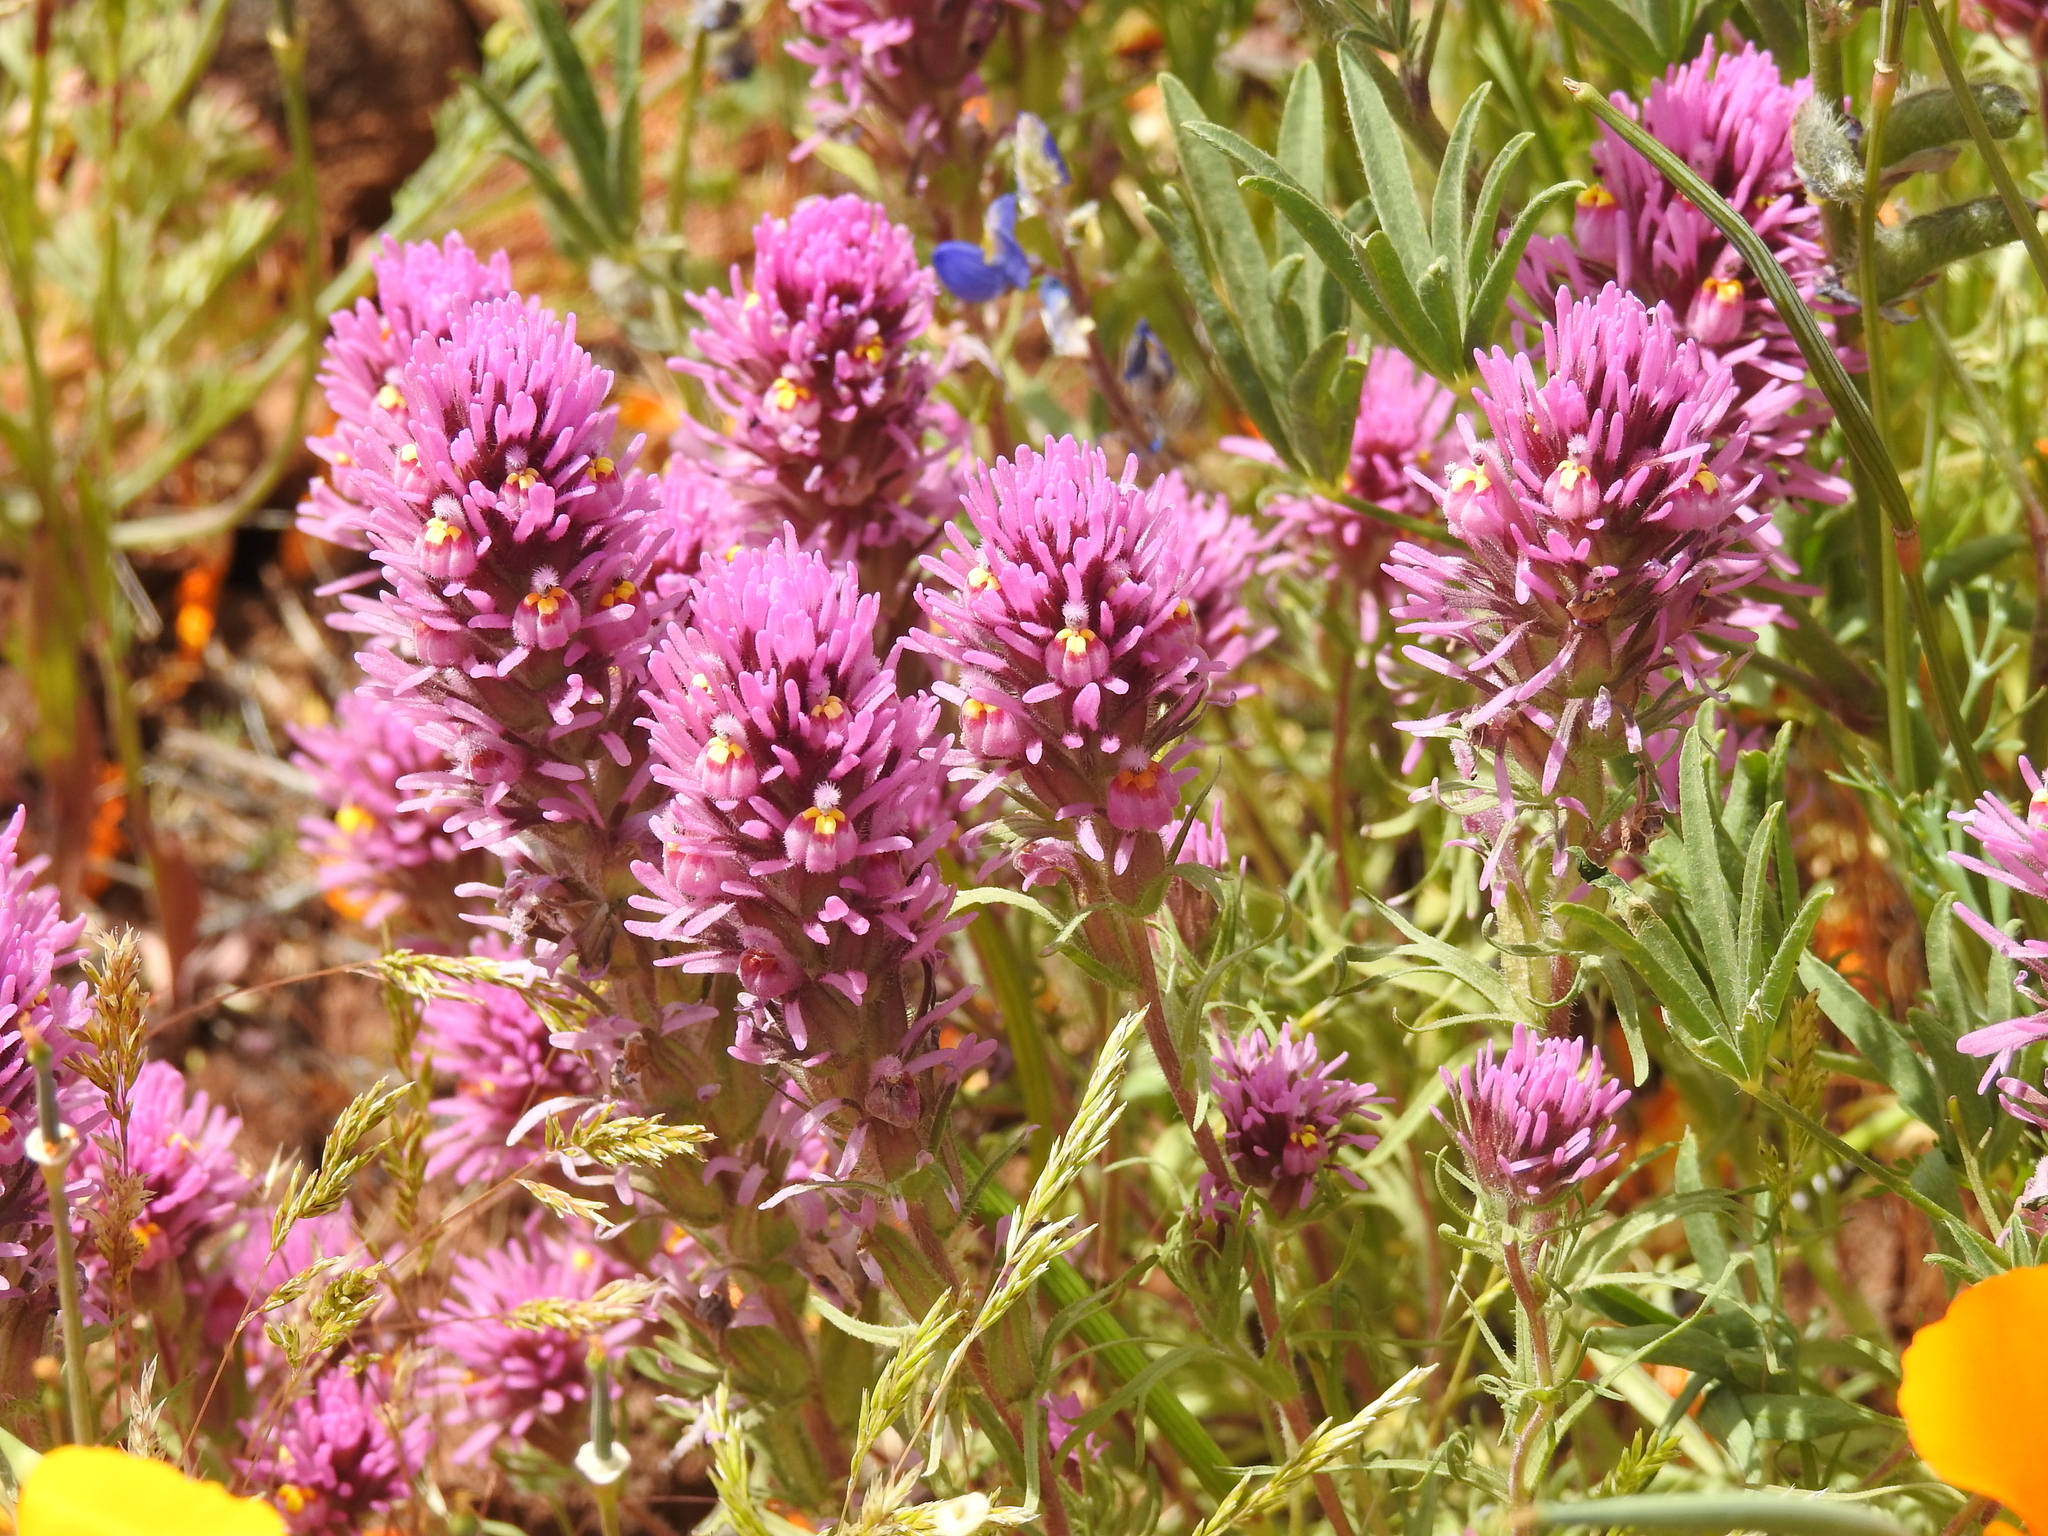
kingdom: Plantae
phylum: Tracheophyta
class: Magnoliopsida
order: Lamiales
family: Orobanchaceae
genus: Castilleja
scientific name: Castilleja exserta
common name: Purple owl-clover
